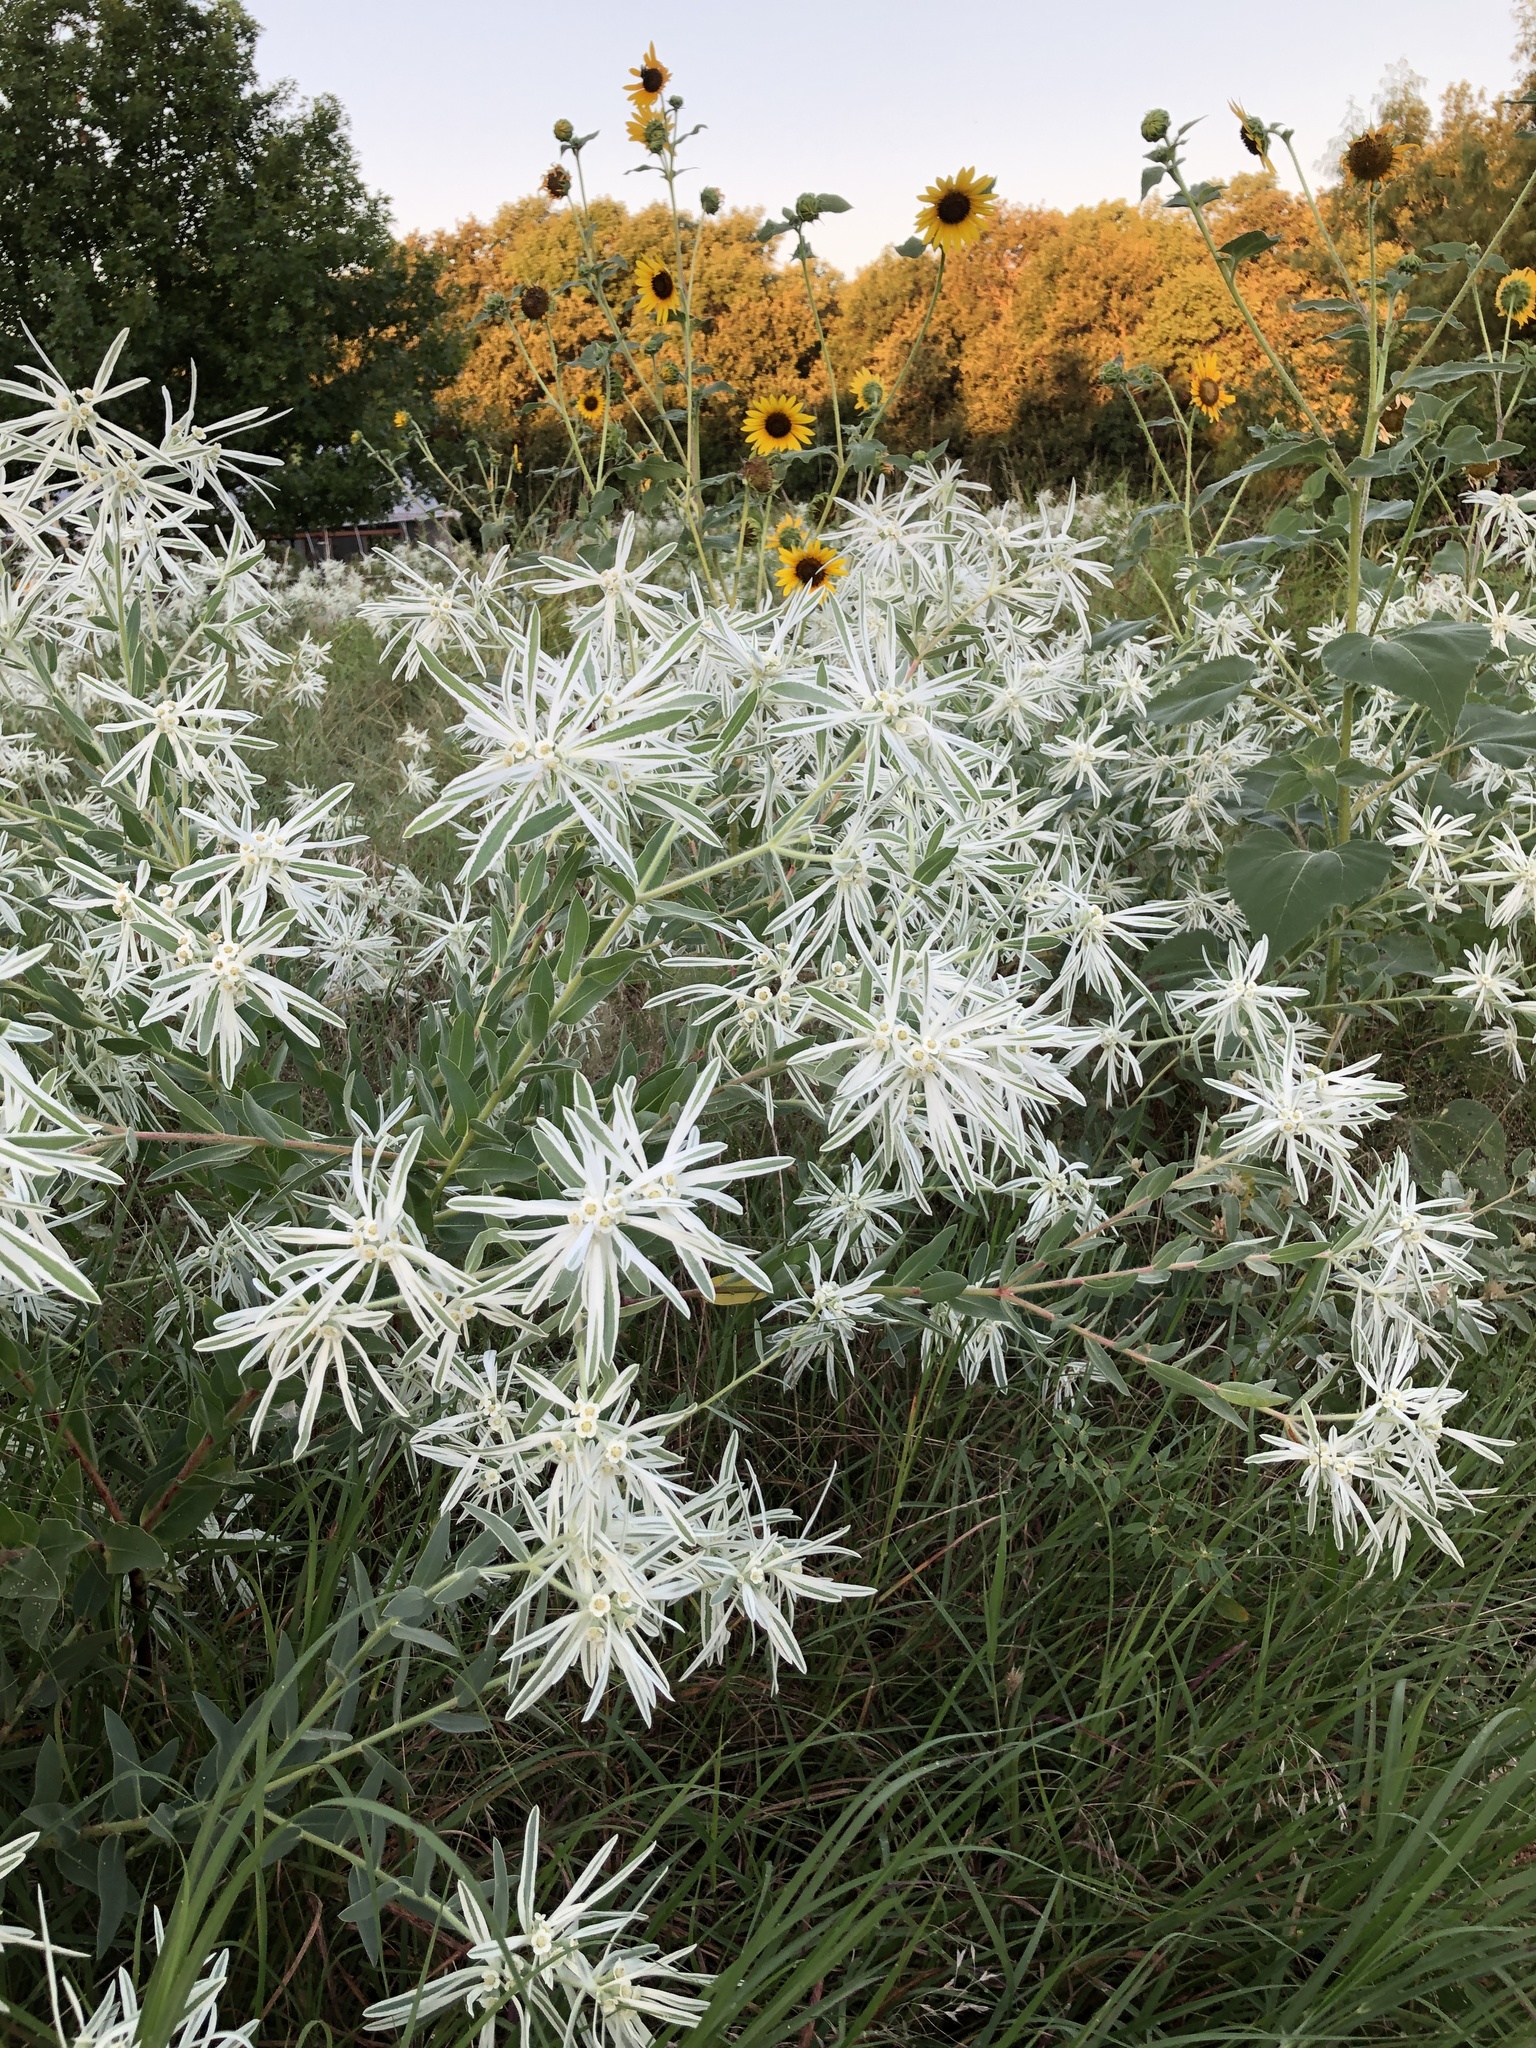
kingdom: Plantae
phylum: Tracheophyta
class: Magnoliopsida
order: Malpighiales
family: Euphorbiaceae
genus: Euphorbia
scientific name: Euphorbia bicolor
